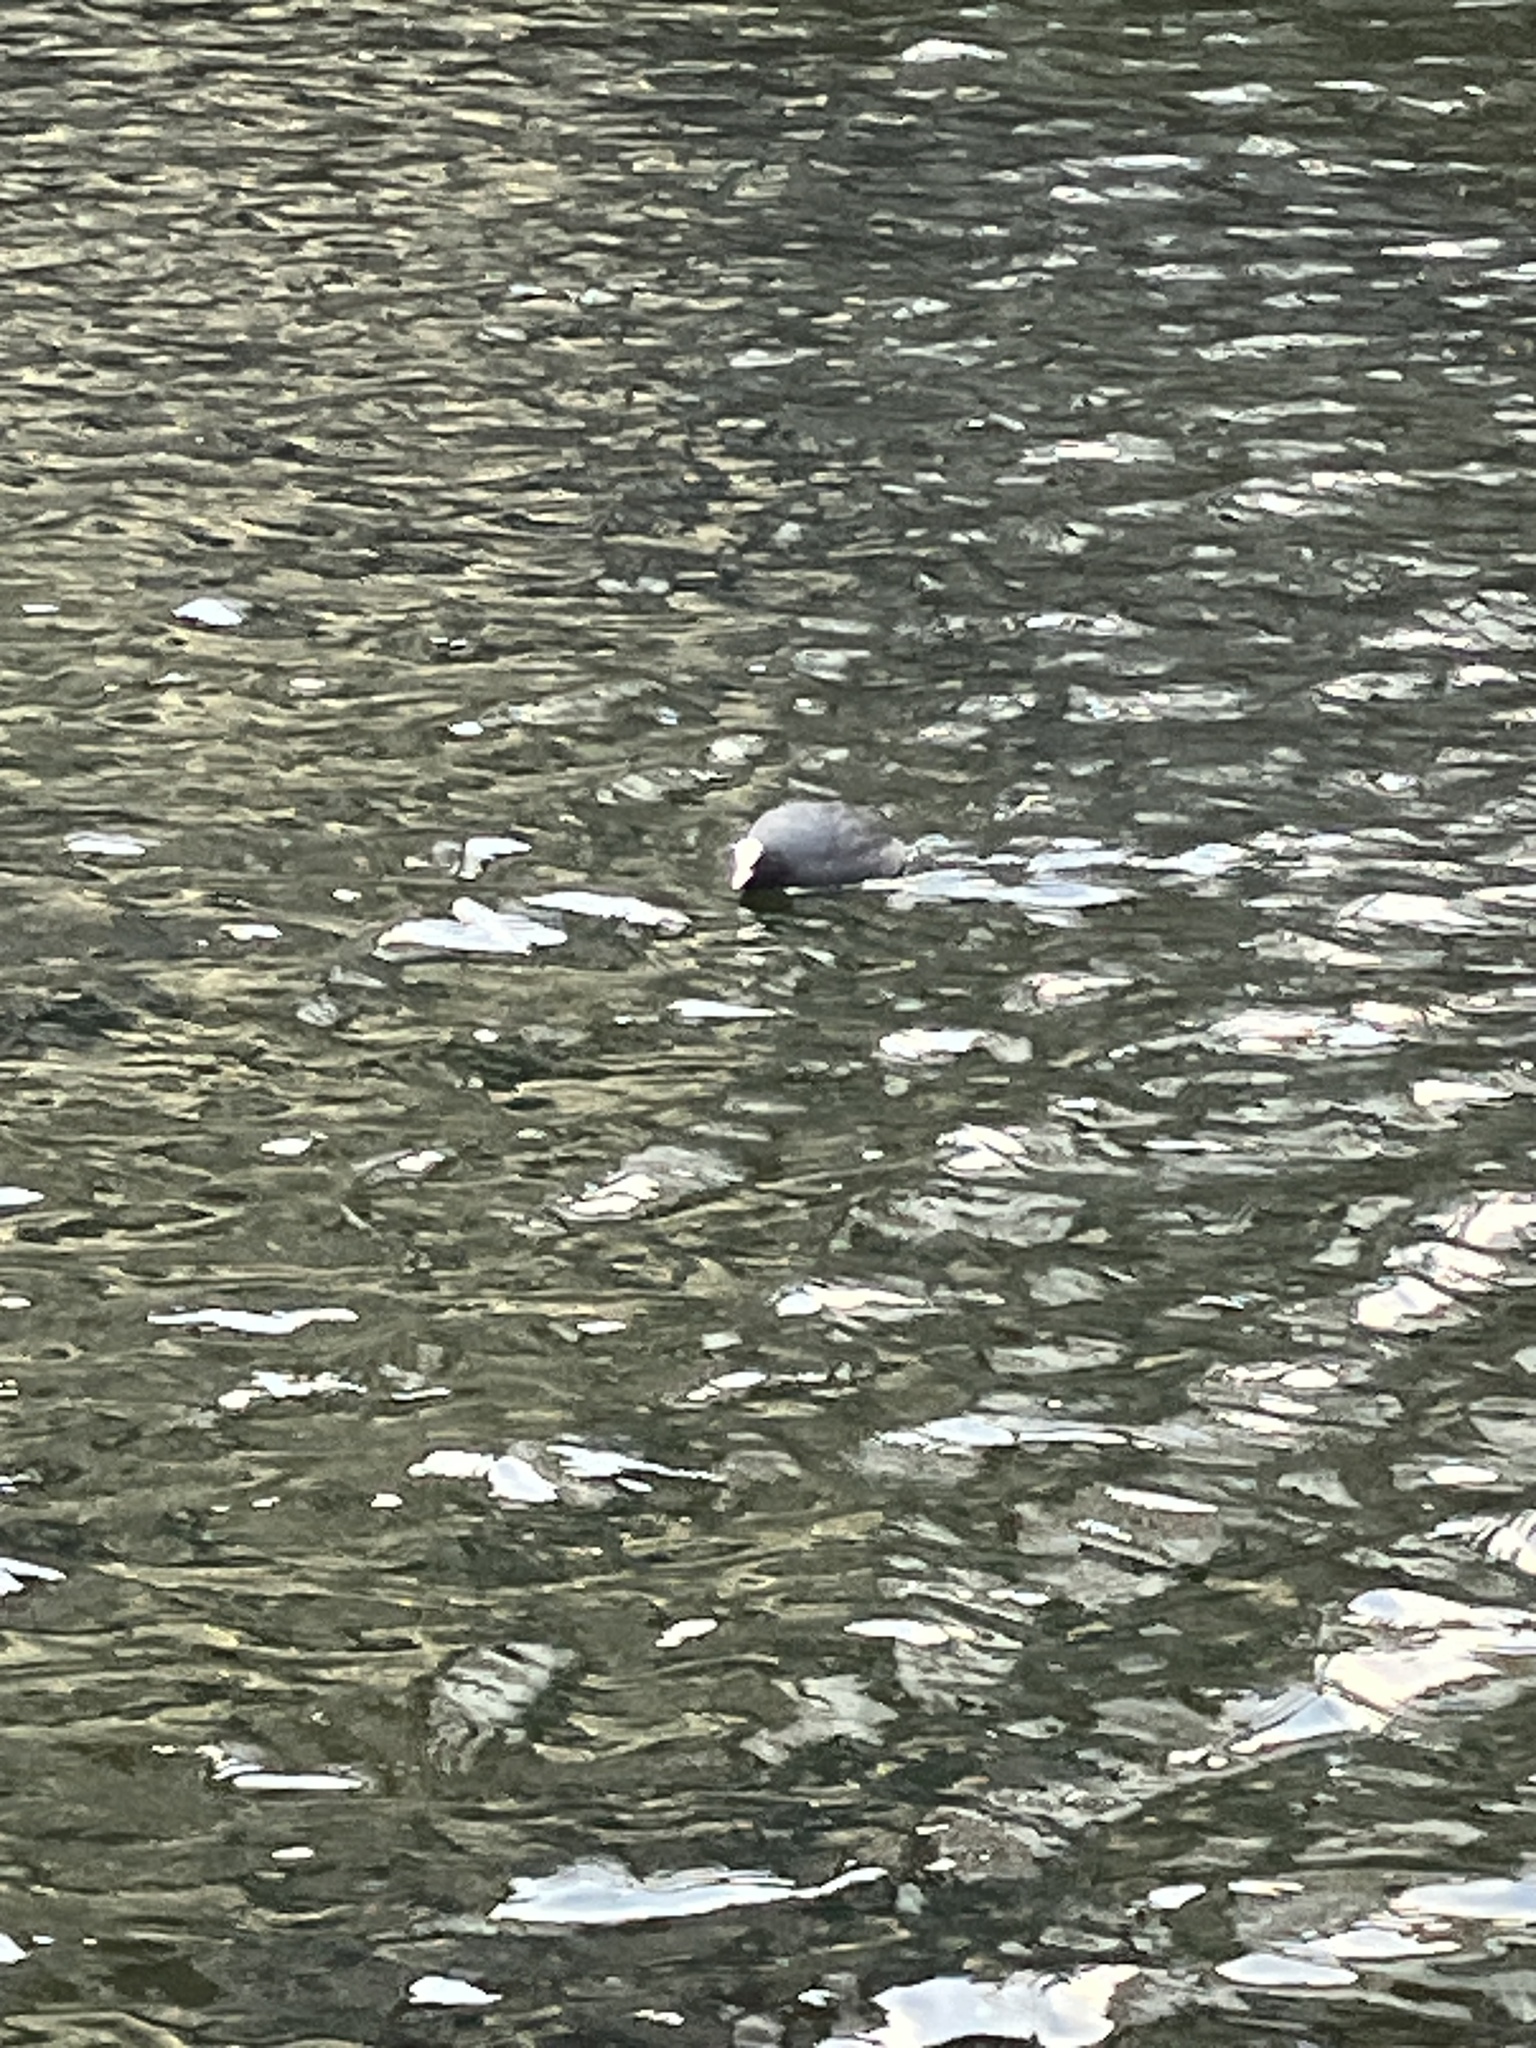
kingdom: Animalia
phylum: Chordata
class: Aves
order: Gruiformes
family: Rallidae
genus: Fulica
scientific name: Fulica atra
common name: Eurasian coot
